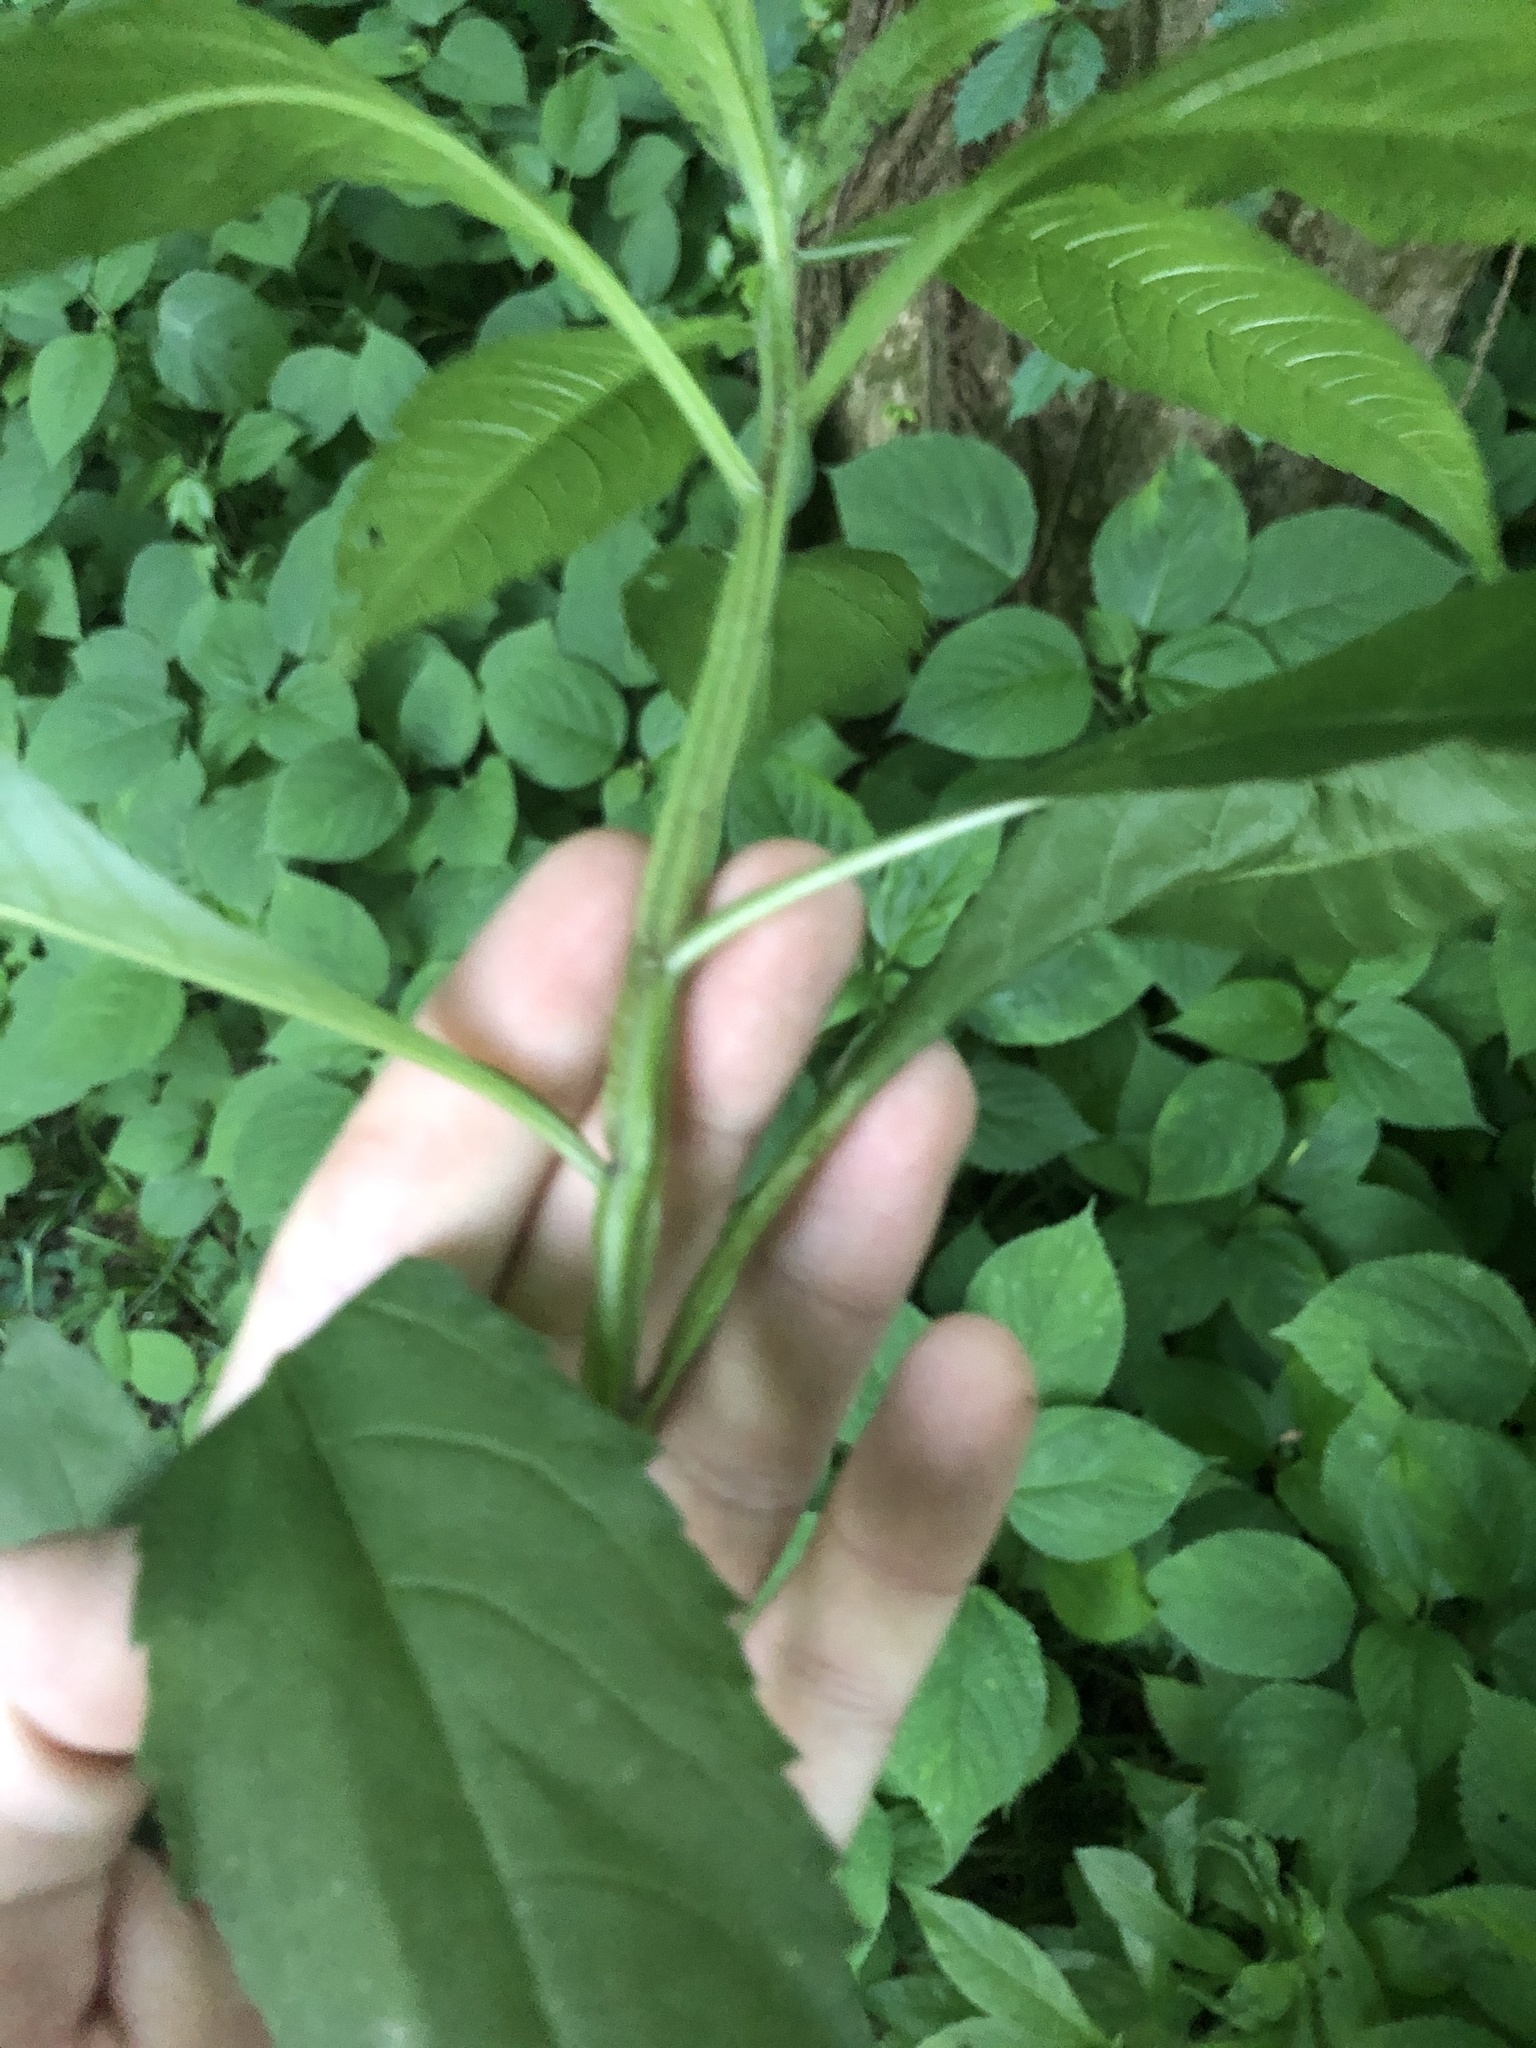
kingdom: Plantae
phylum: Tracheophyta
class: Magnoliopsida
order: Asterales
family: Asteraceae
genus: Verbesina
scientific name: Verbesina alternifolia
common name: Wingstem
